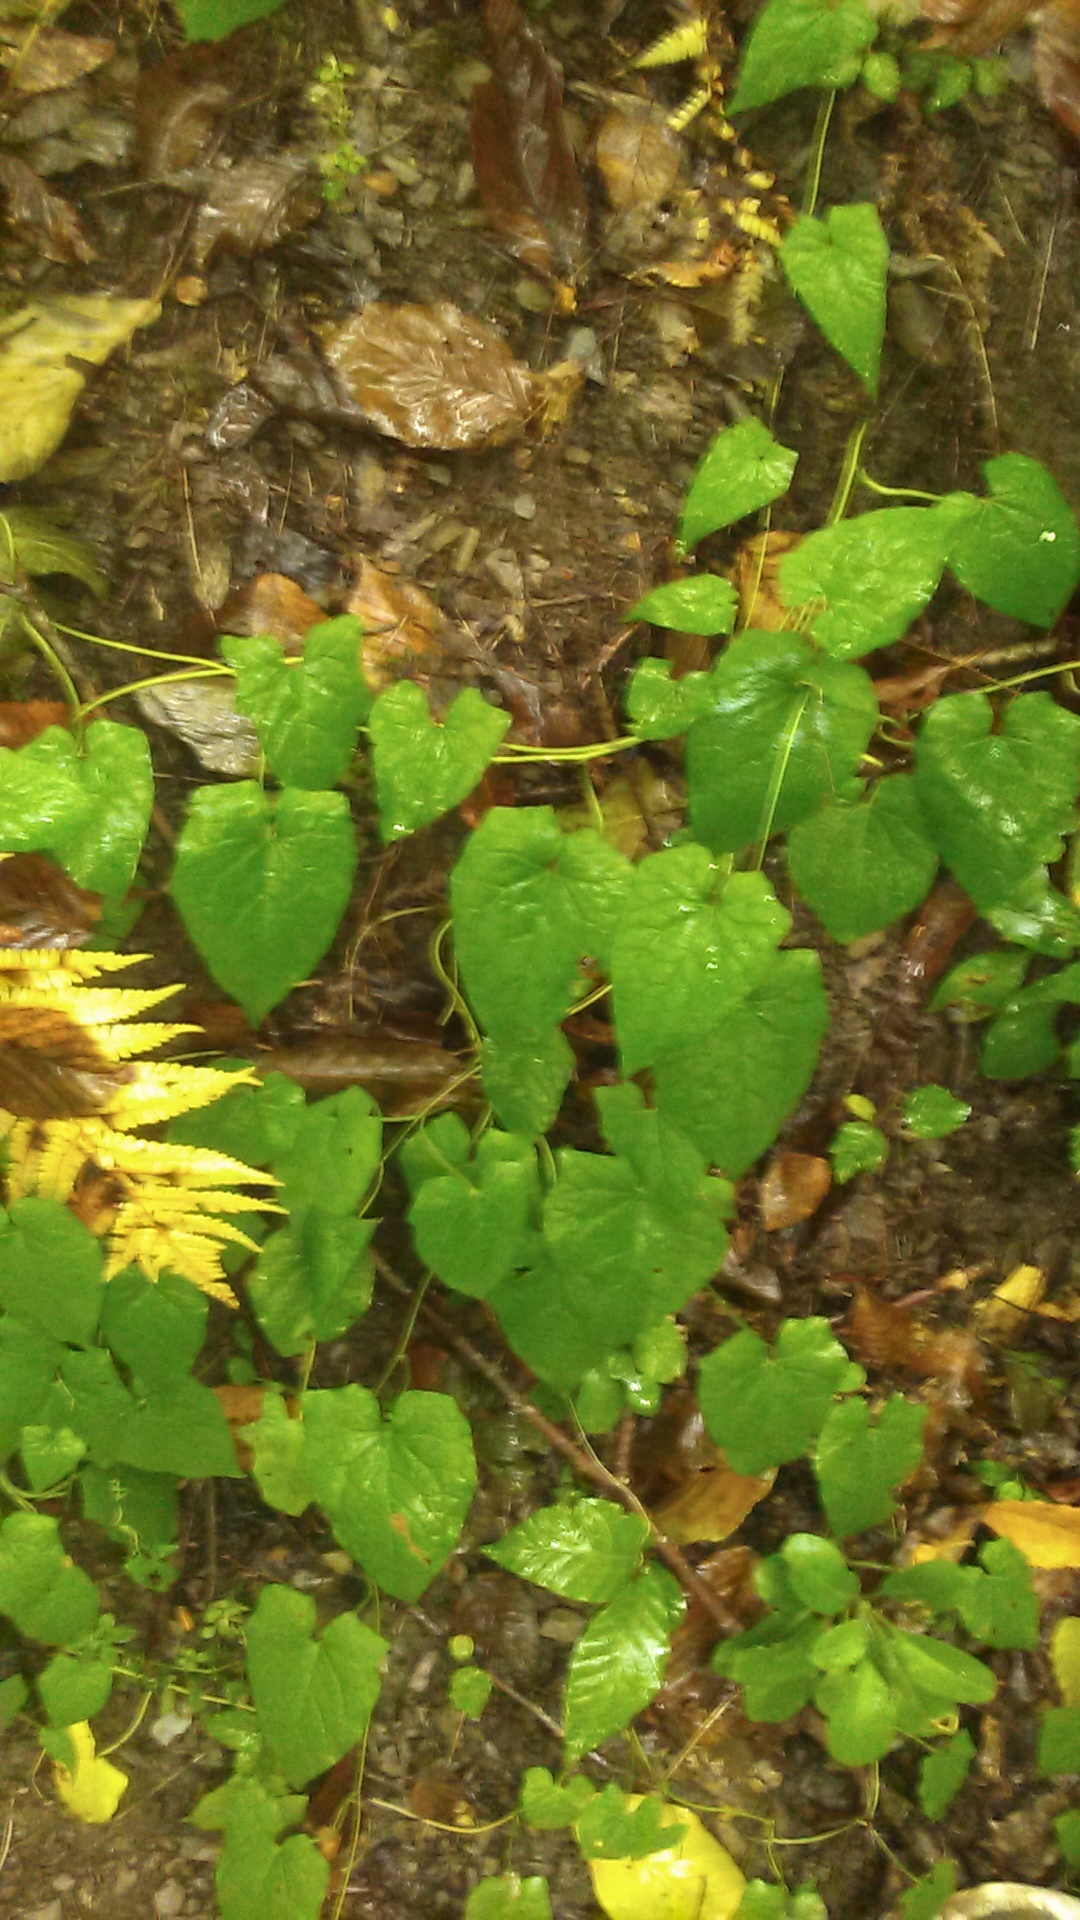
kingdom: Plantae
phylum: Tracheophyta
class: Magnoliopsida
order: Solanales
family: Convolvulaceae
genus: Calystegia
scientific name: Calystegia
